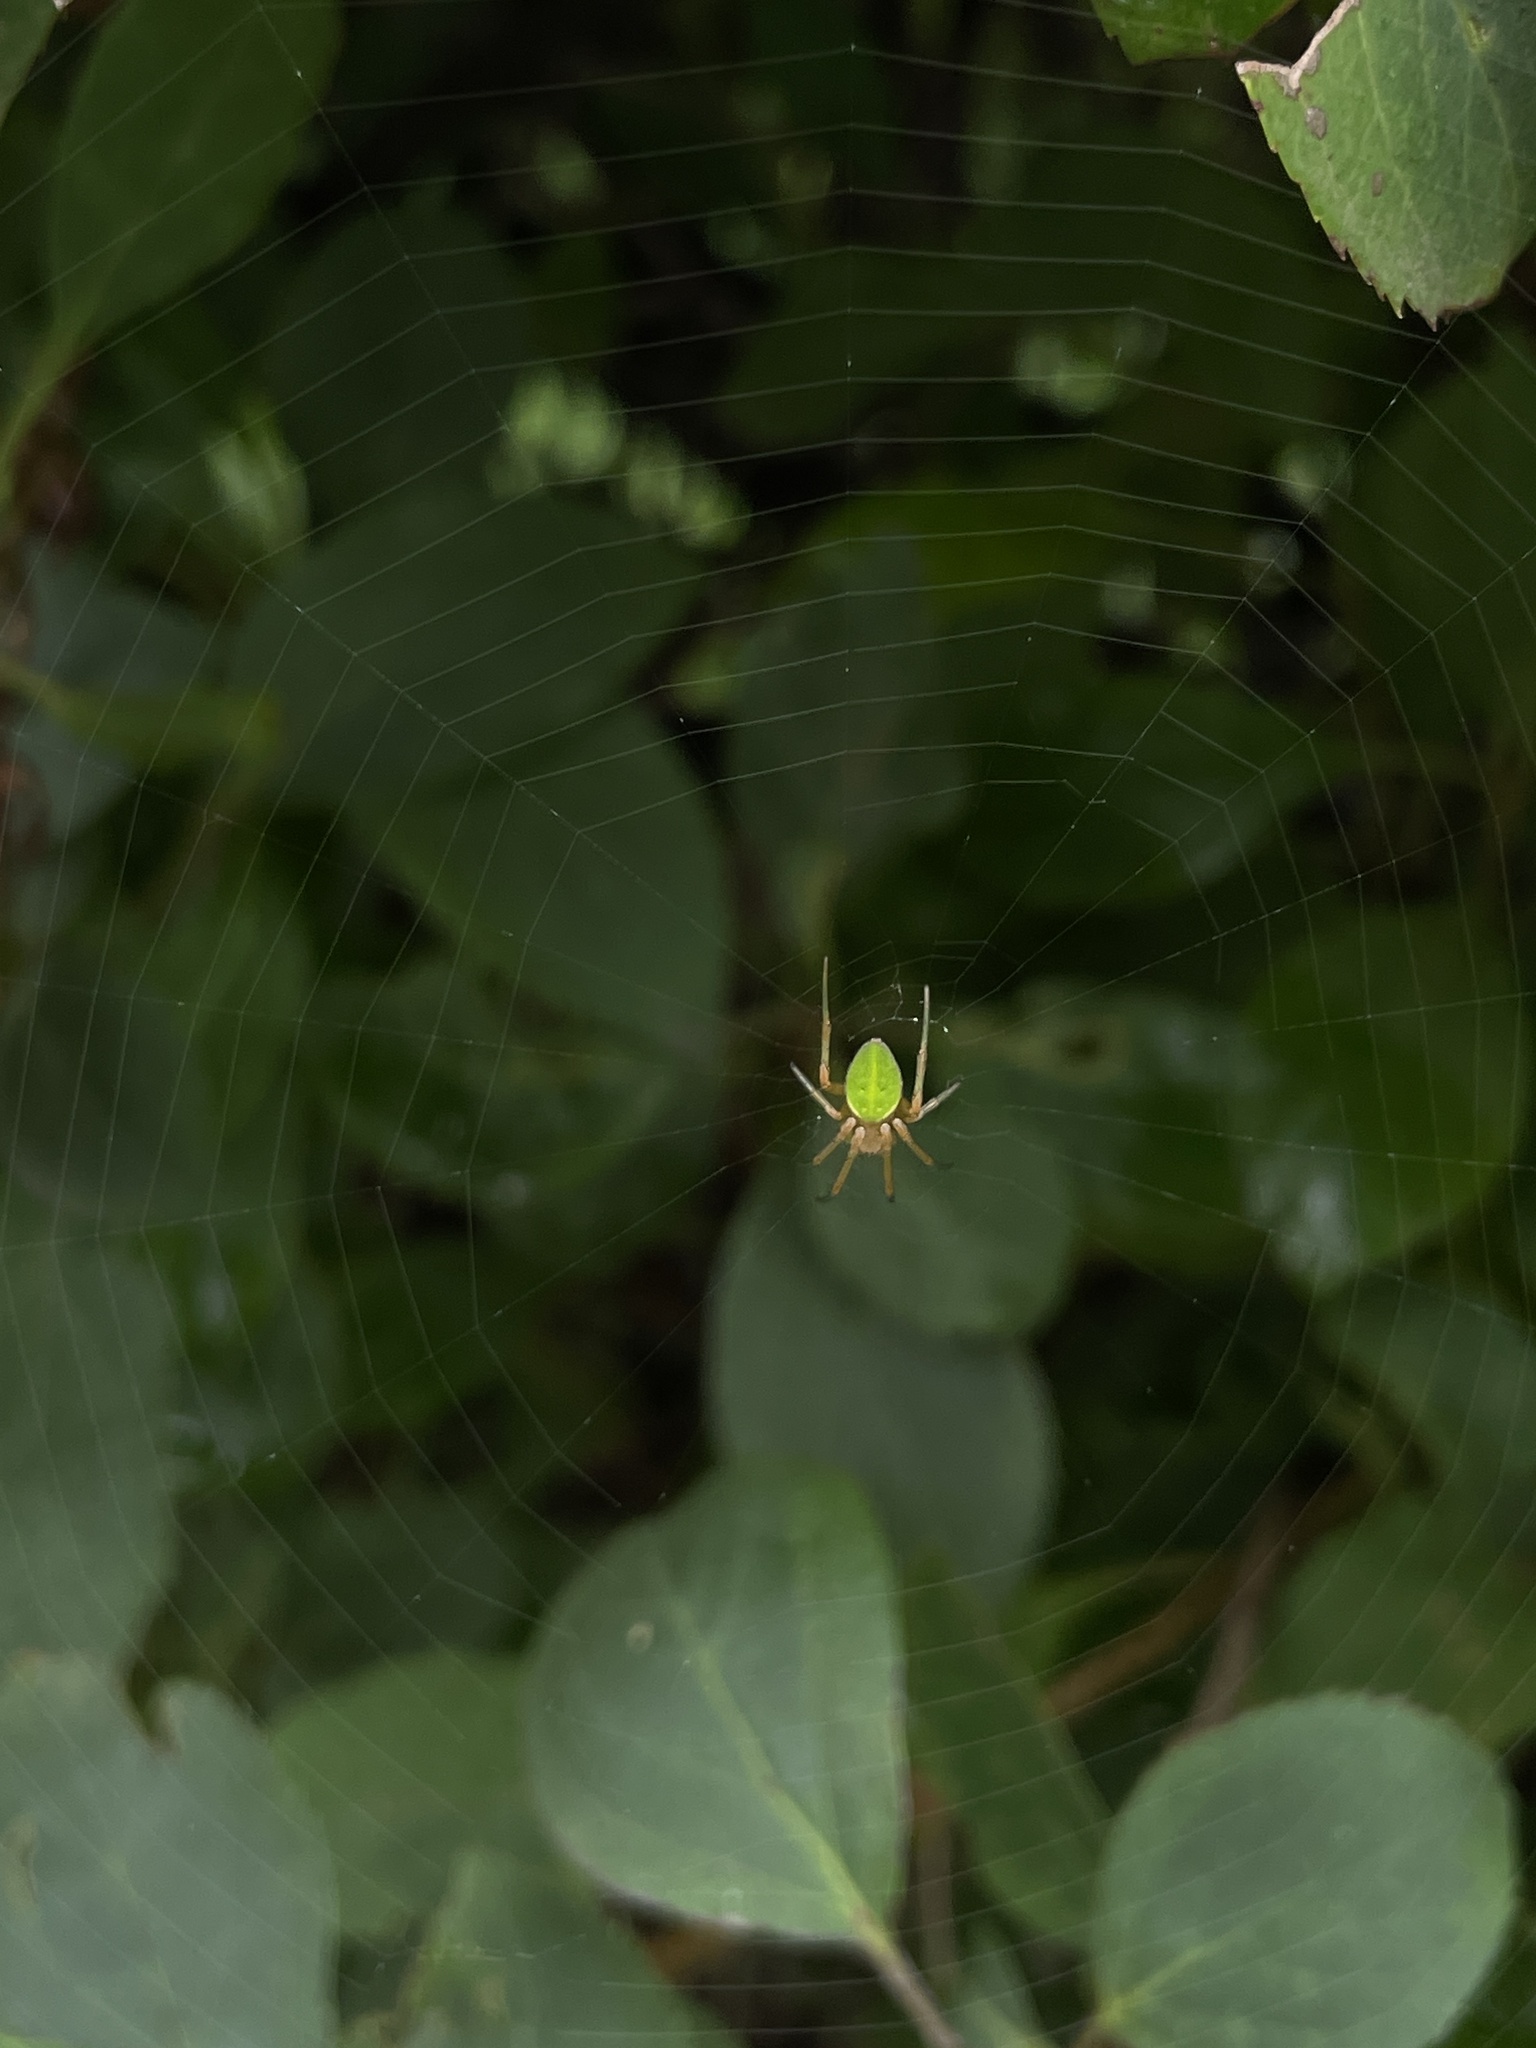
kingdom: Animalia
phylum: Arthropoda
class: Arachnida
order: Araneae
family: Araneidae
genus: Neoscona
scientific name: Neoscona scylloides
